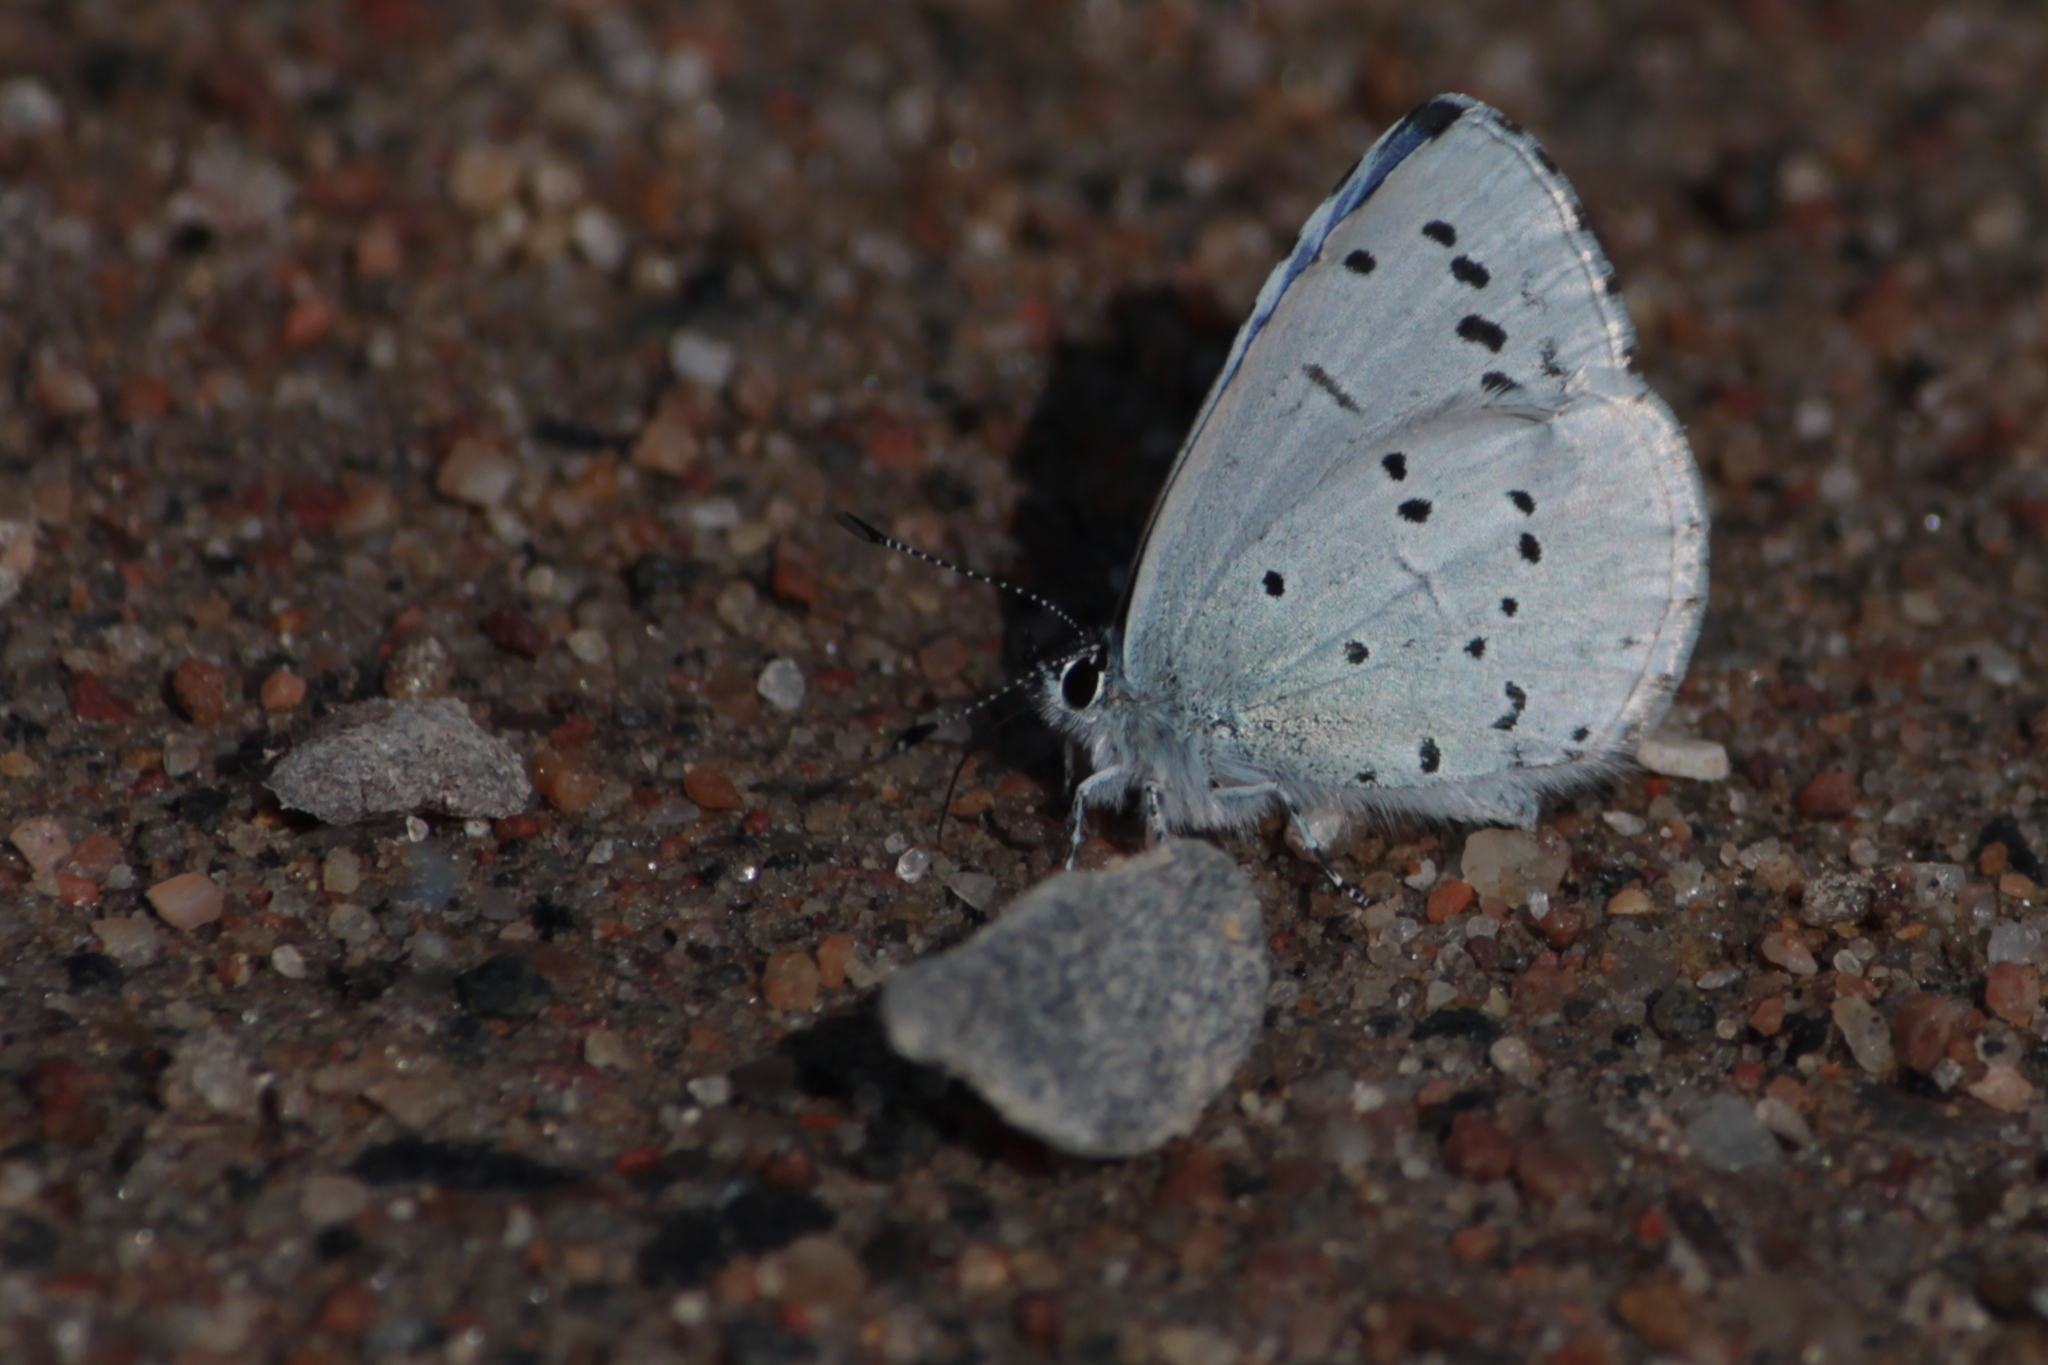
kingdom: Animalia
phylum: Arthropoda
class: Insecta
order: Lepidoptera
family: Lycaenidae
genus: Celastrina
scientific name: Celastrina argiolus
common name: Holly blue
